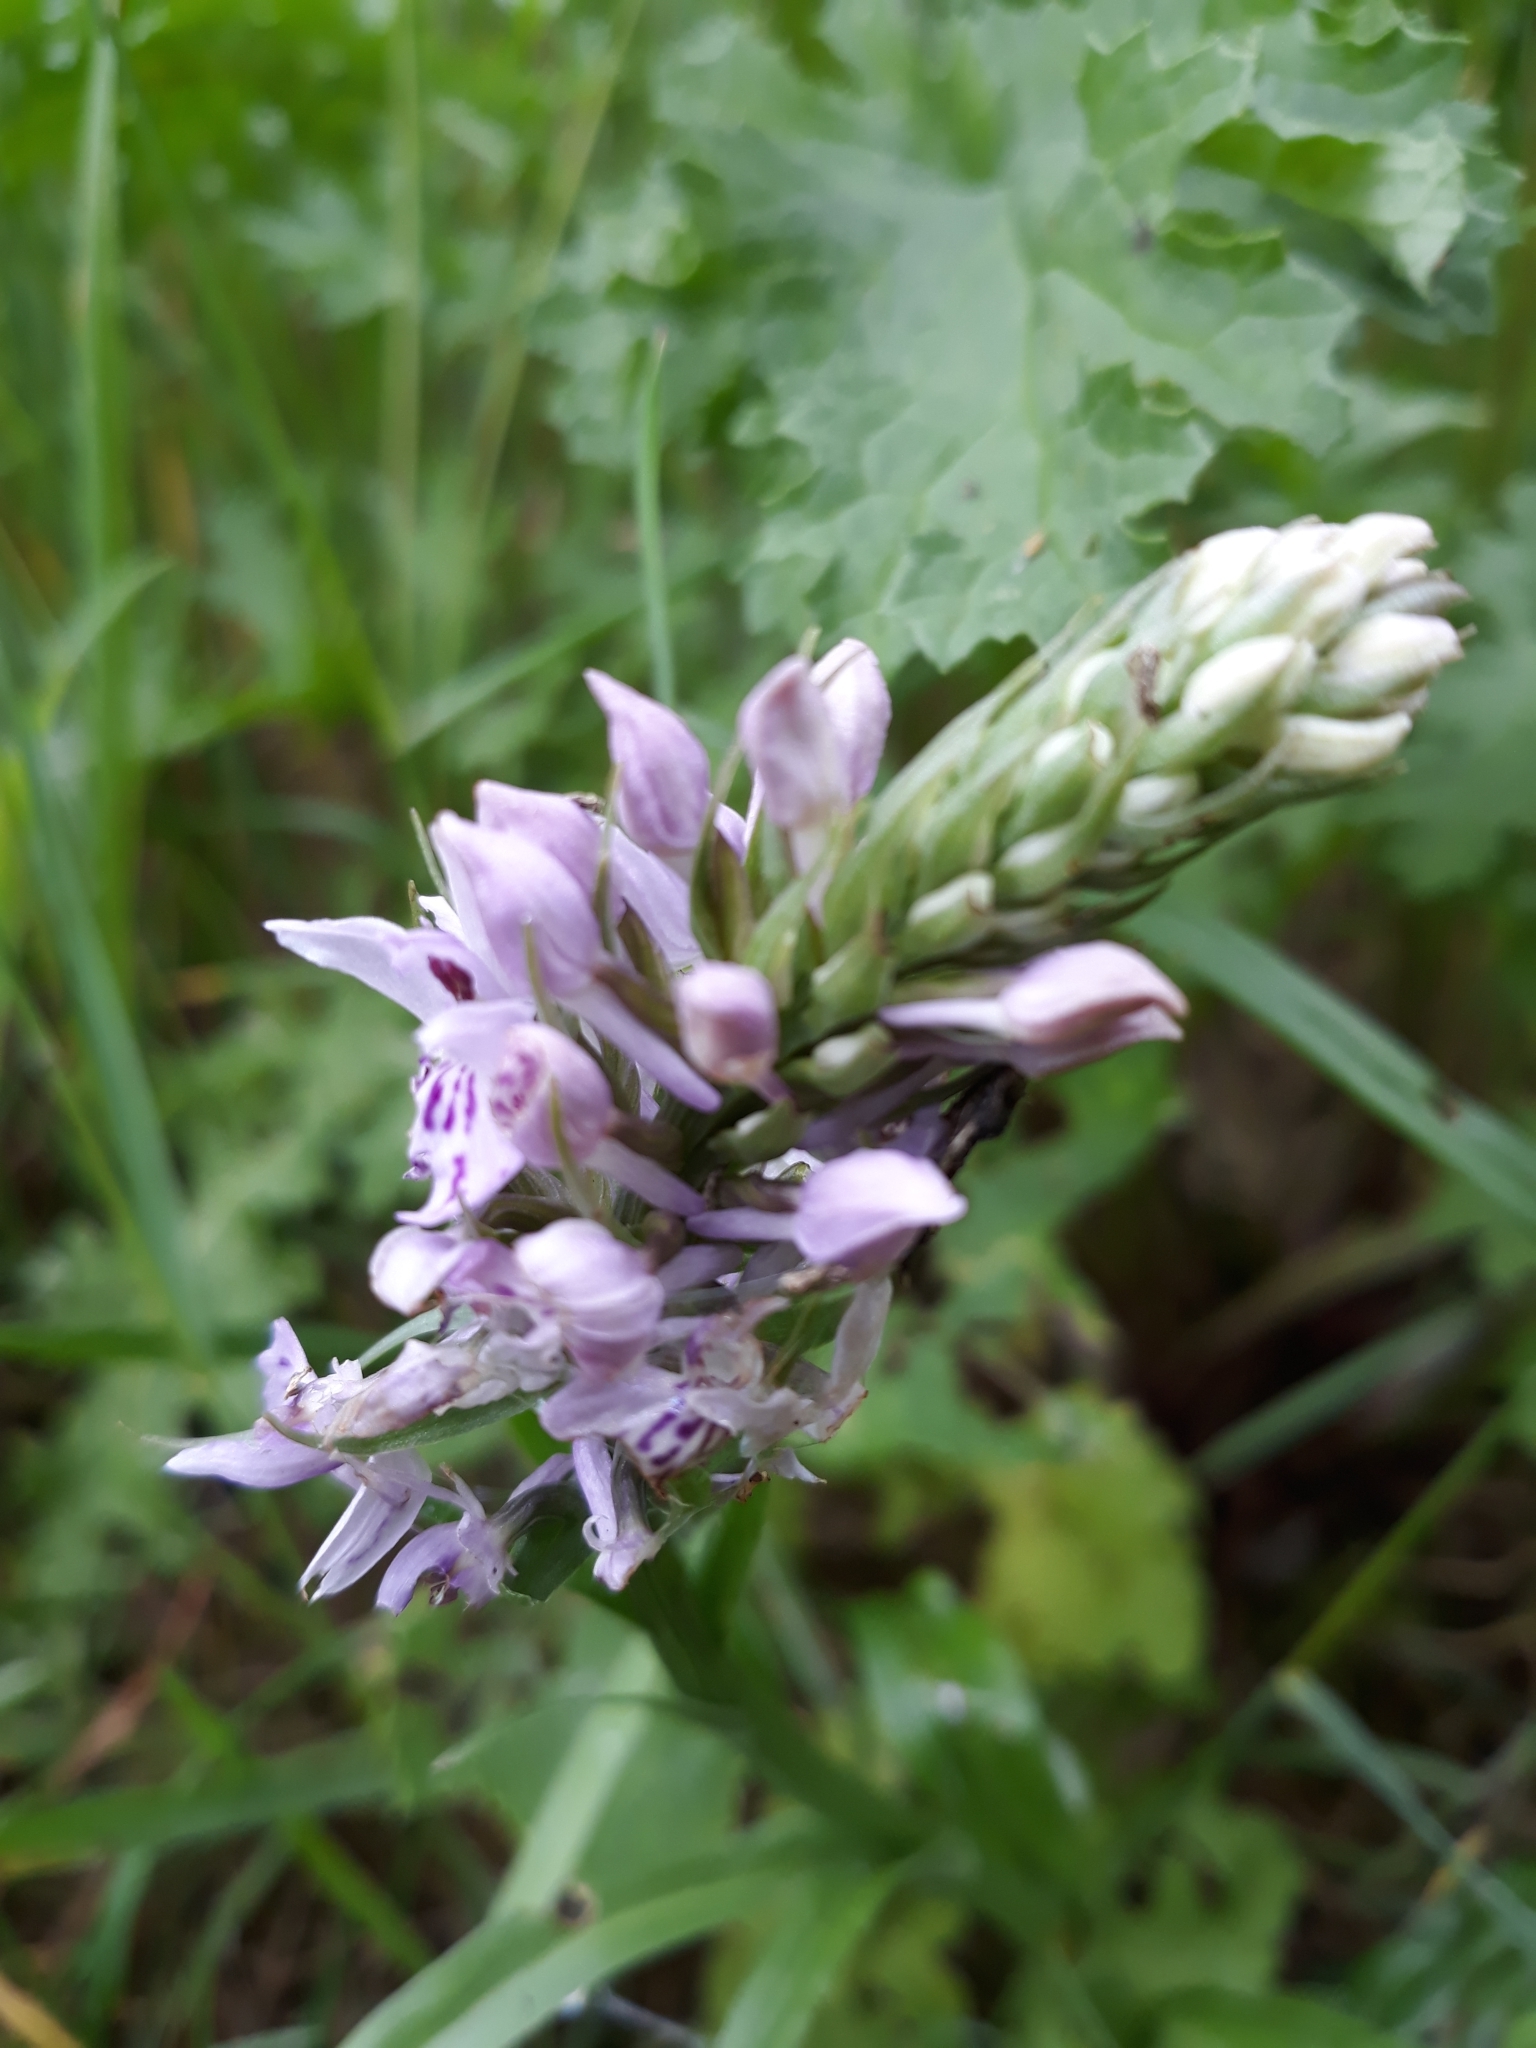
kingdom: Plantae
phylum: Tracheophyta
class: Liliopsida
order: Asparagales
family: Orchidaceae
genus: Dactylorhiza
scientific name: Dactylorhiza maculata
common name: Heath spotted-orchid
